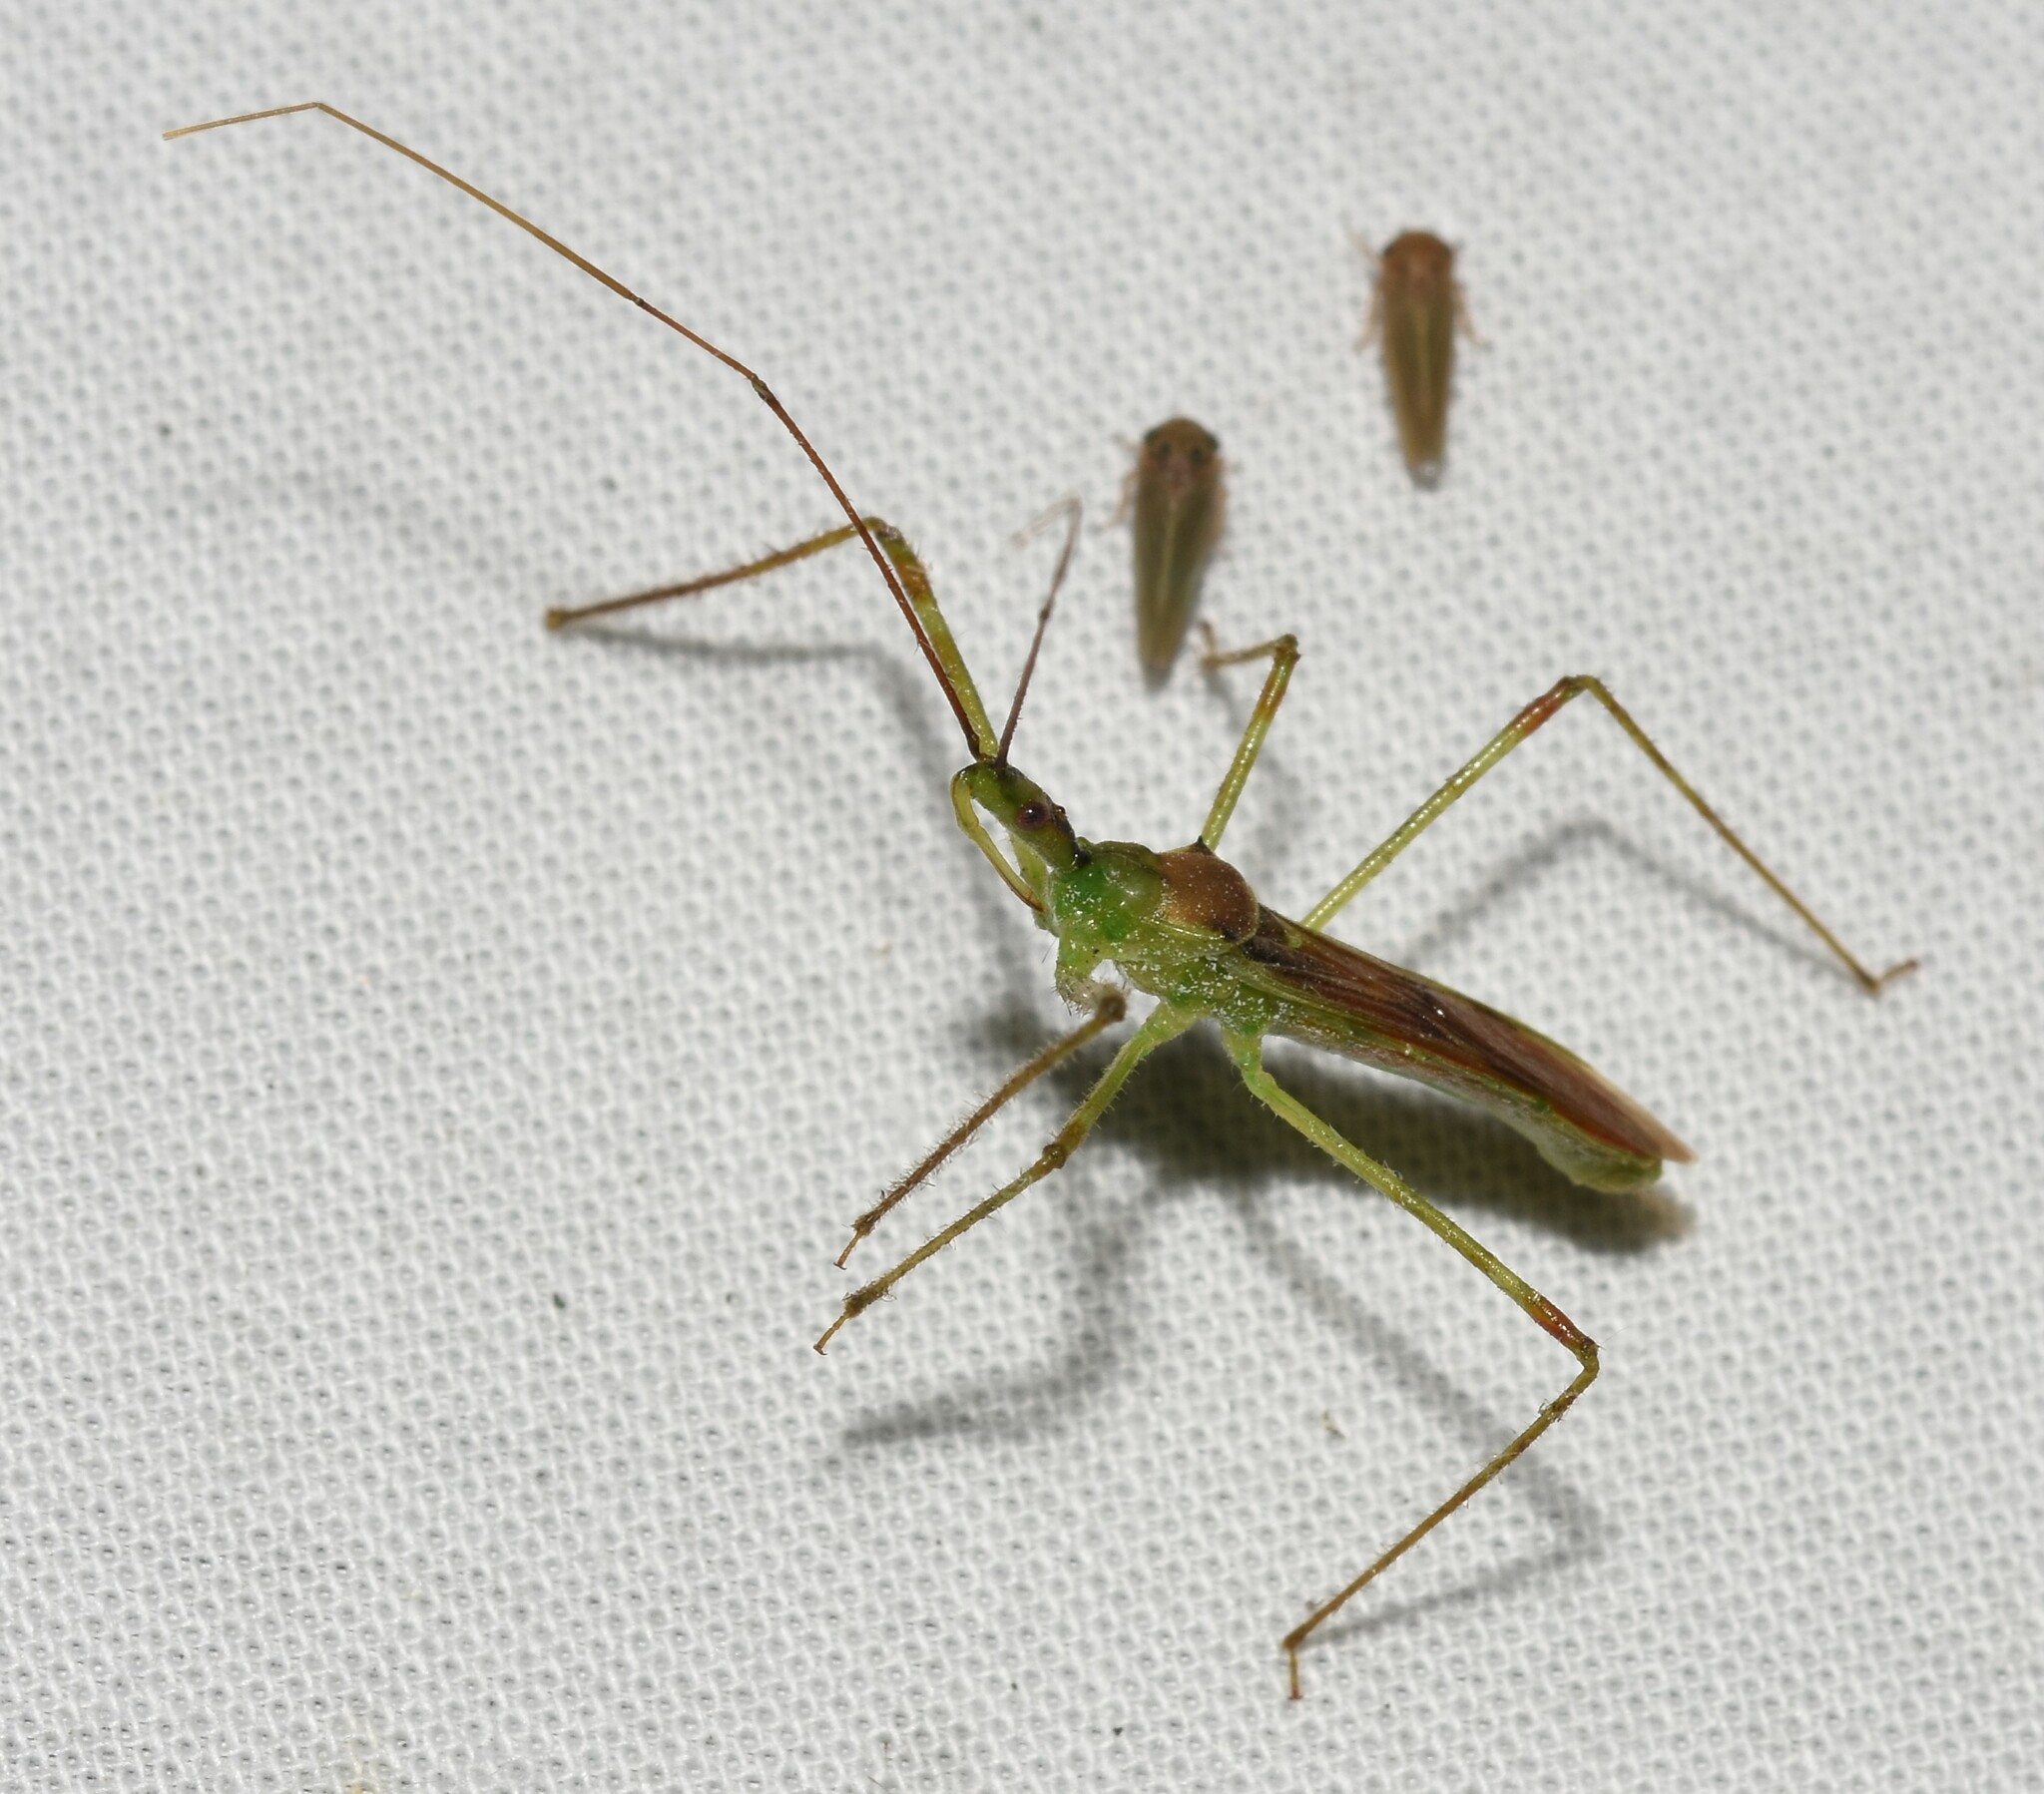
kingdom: Animalia
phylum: Arthropoda
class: Insecta
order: Hemiptera
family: Reduviidae
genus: Zelus
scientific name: Zelus luridus
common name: Pale green assassin bug
